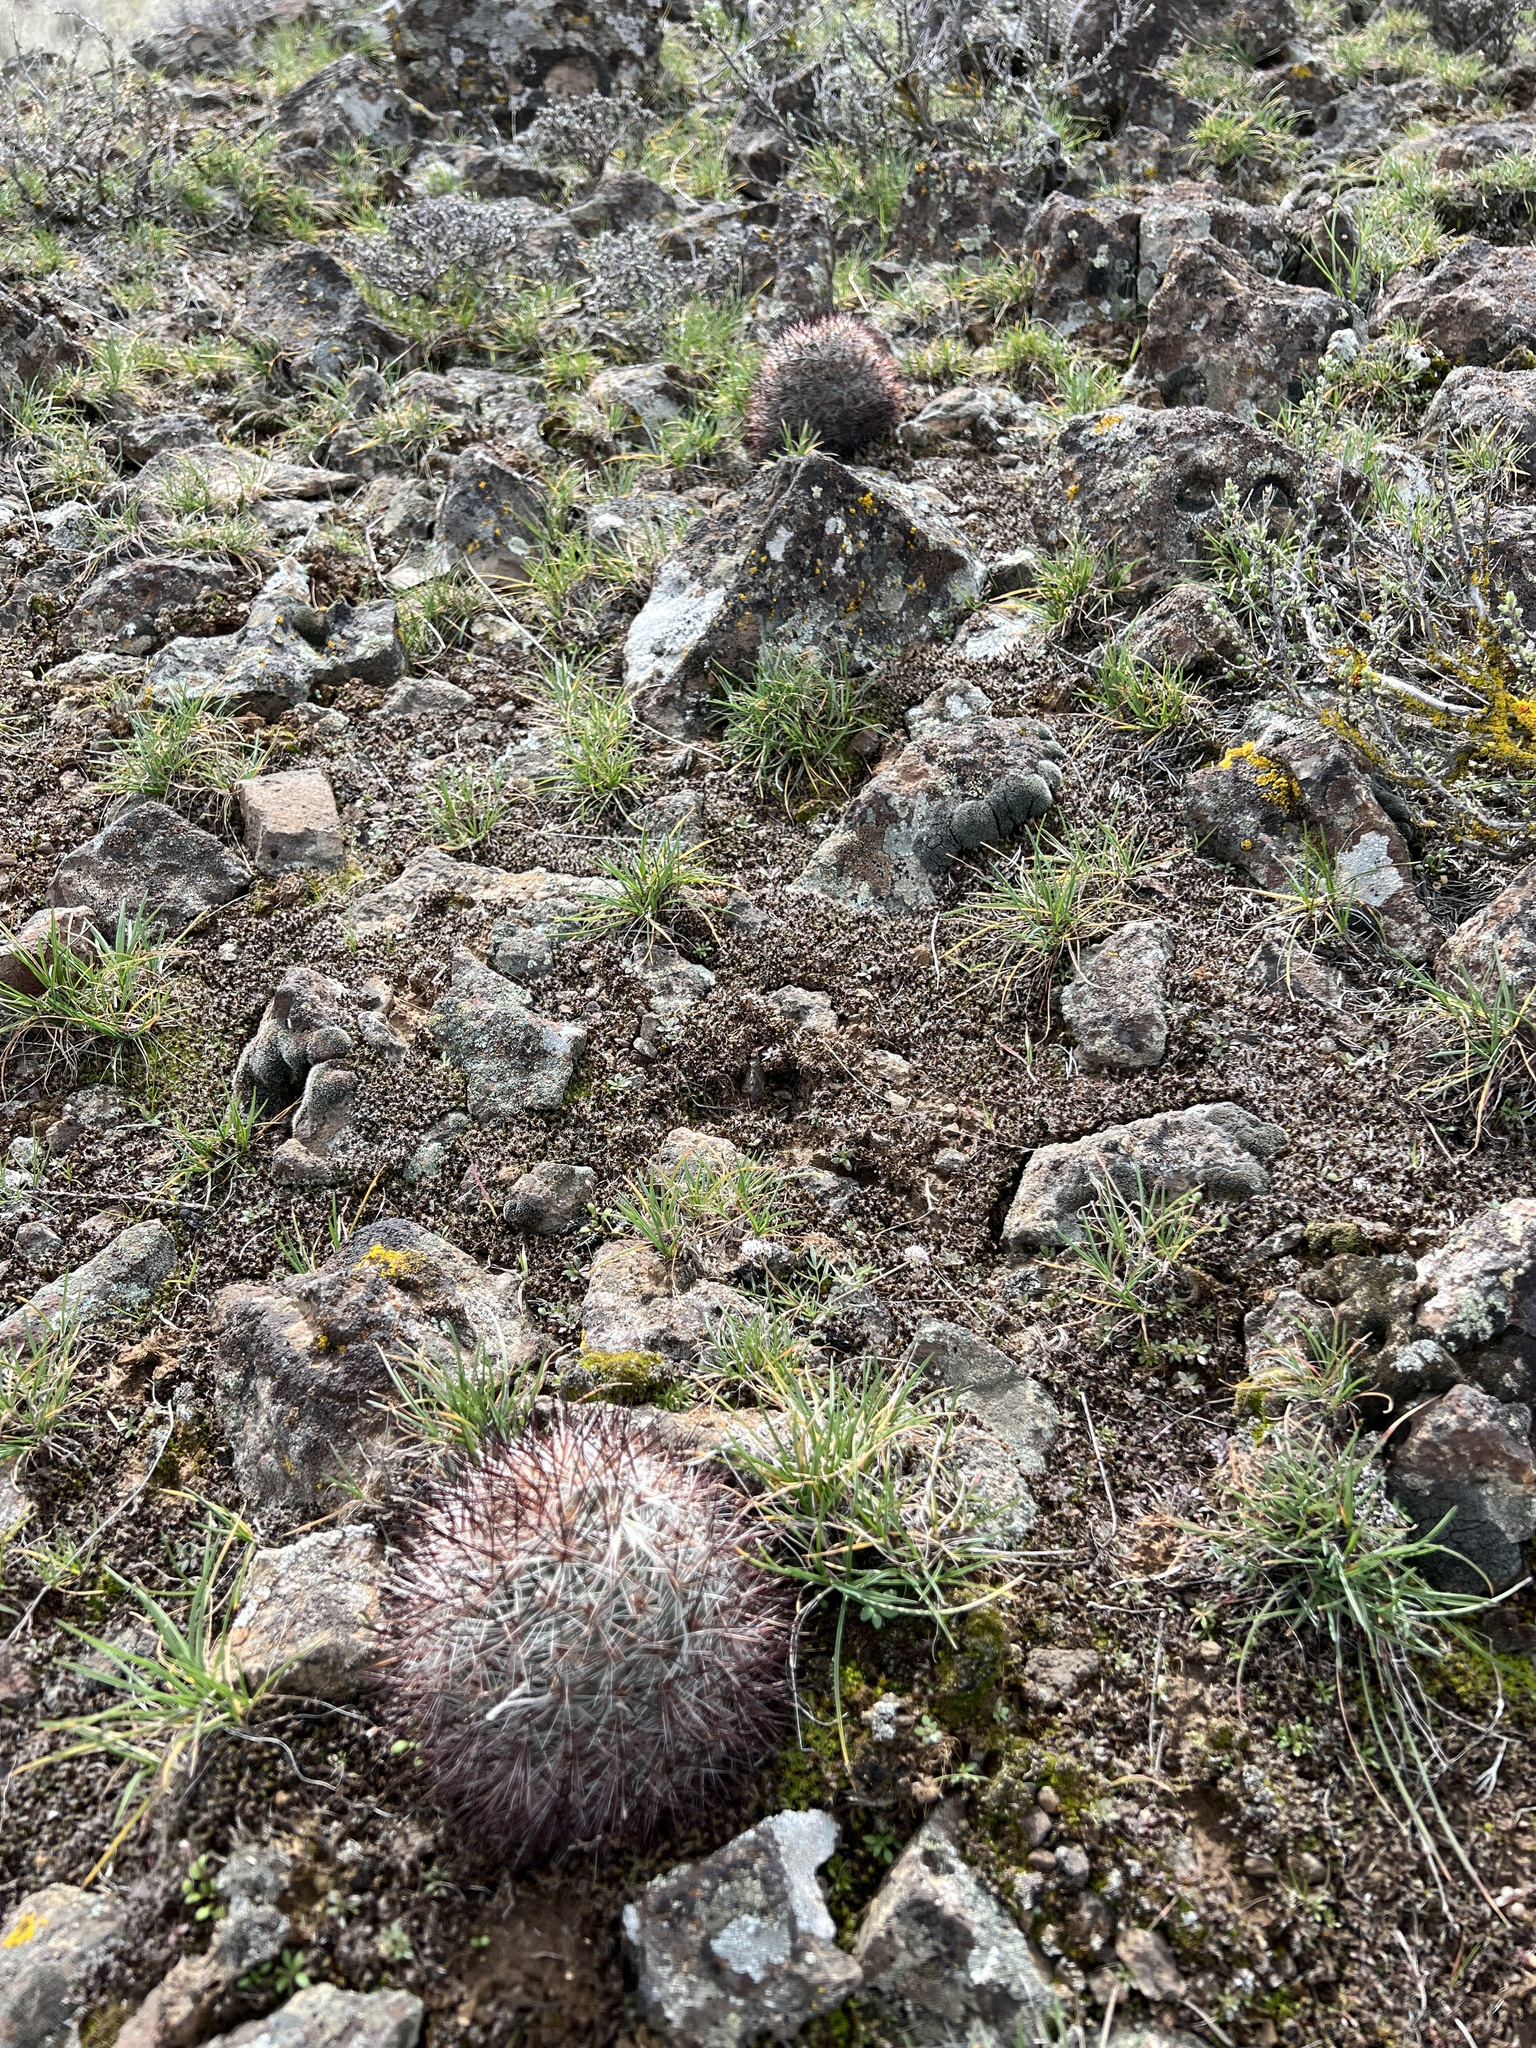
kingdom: Plantae
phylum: Tracheophyta
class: Magnoliopsida
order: Caryophyllales
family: Cactaceae
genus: Pediocactus
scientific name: Pediocactus nigrispinus
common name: Simpson's hedgehog cactus
